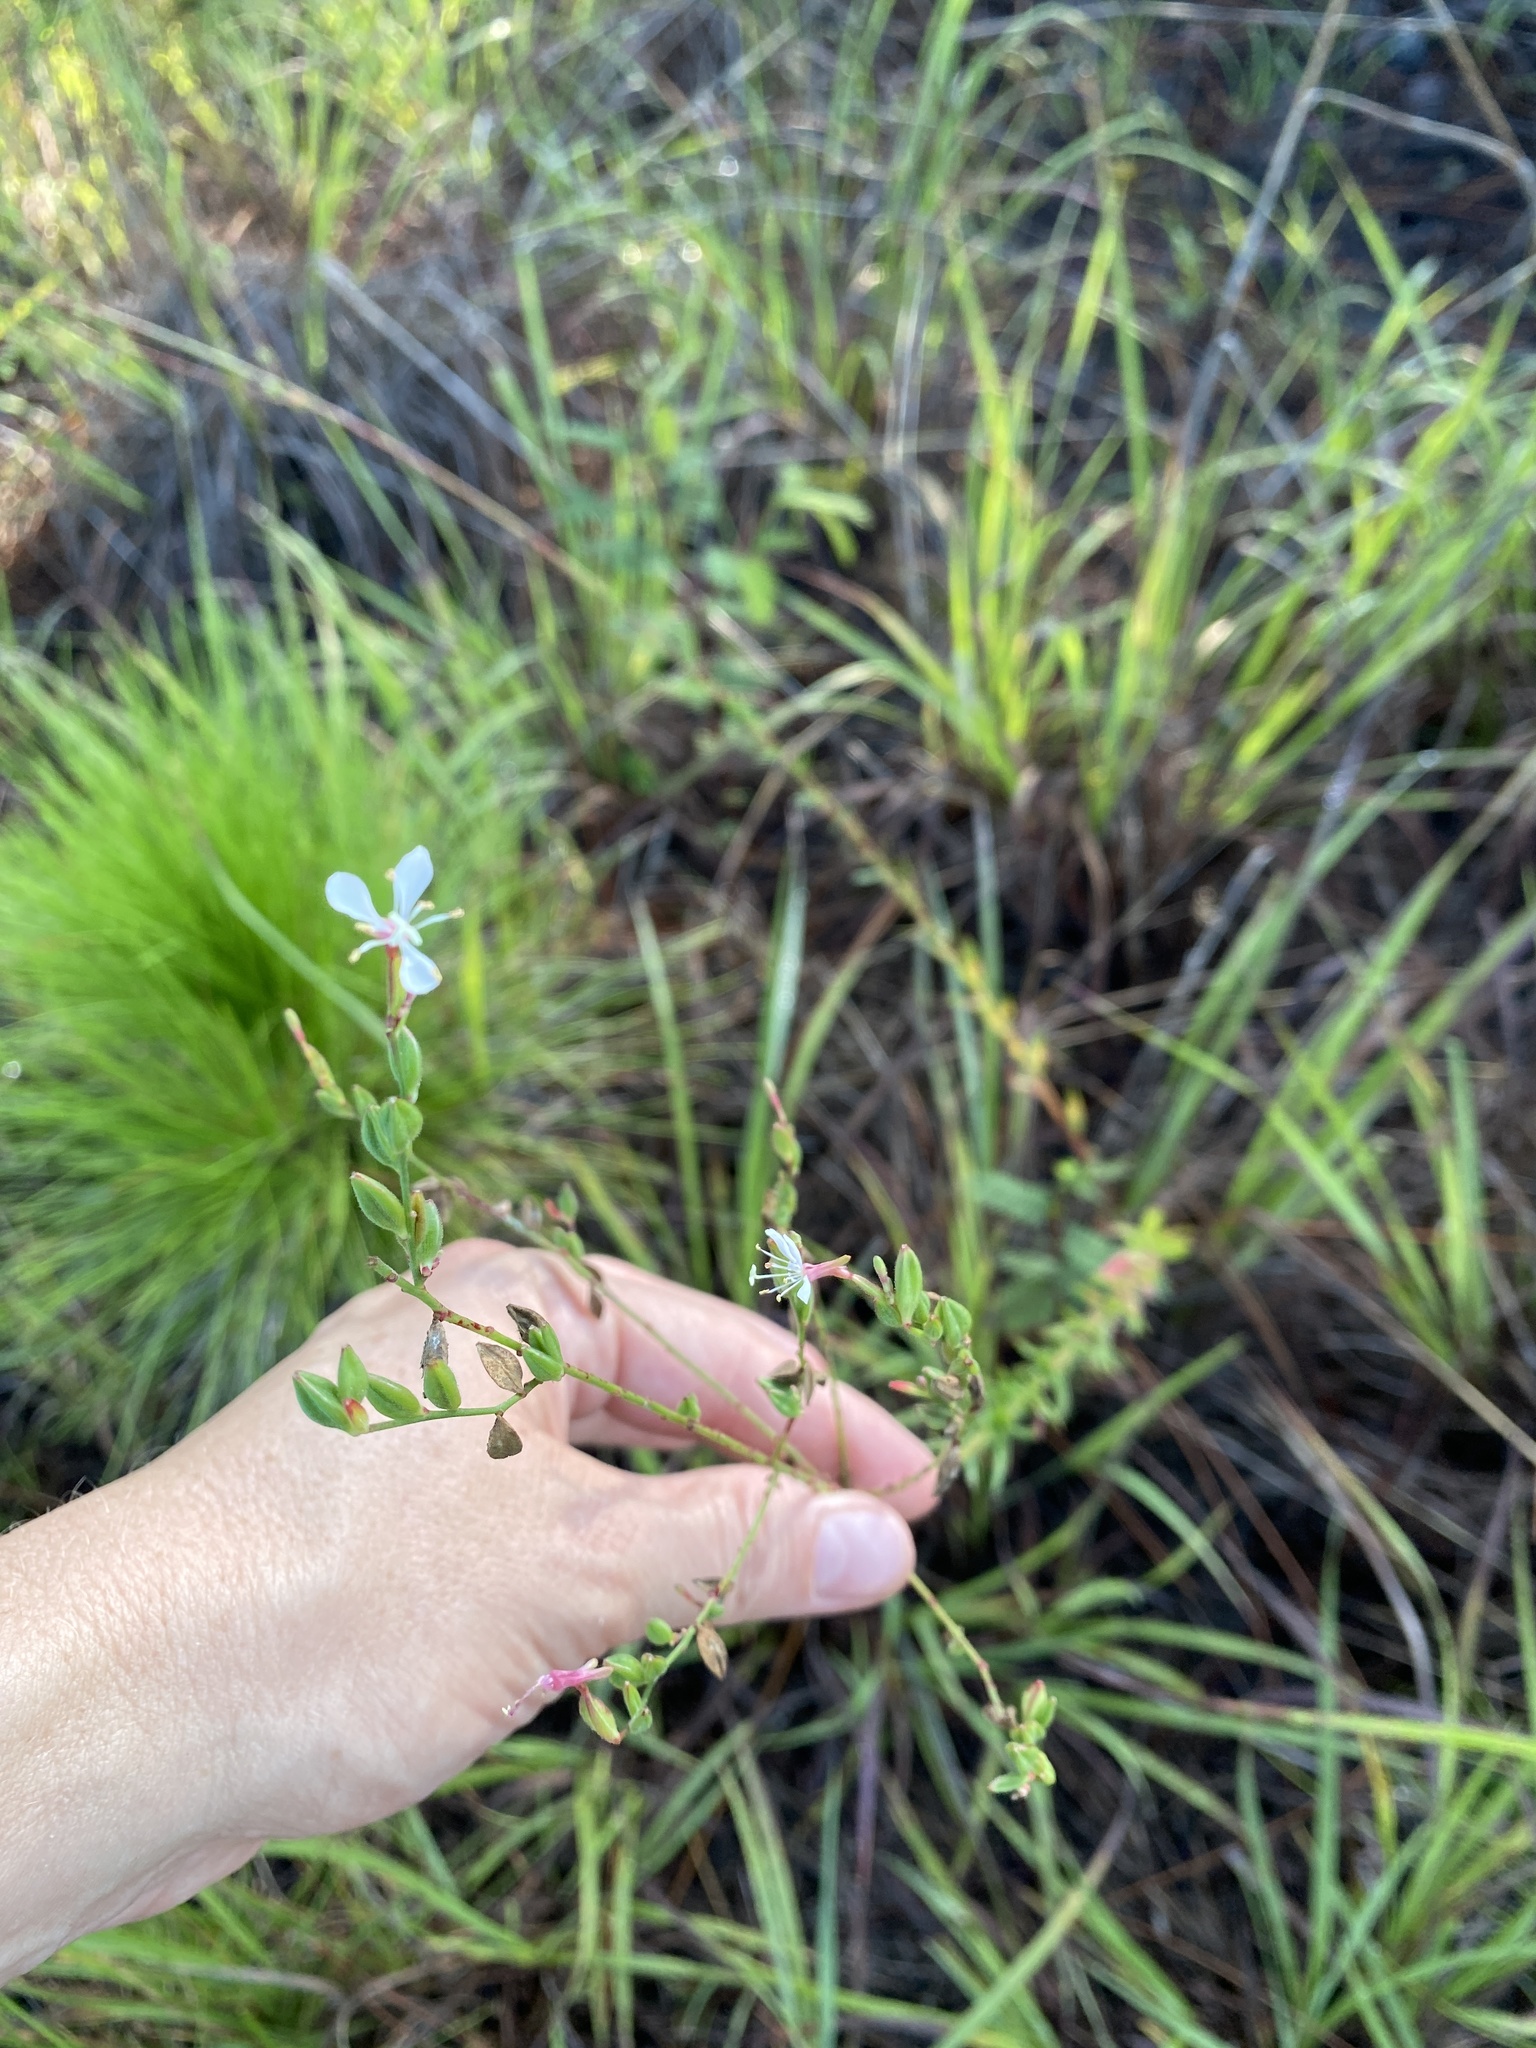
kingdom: Plantae
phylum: Tracheophyta
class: Magnoliopsida
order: Myrtales
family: Onagraceae
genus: Oenothera
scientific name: Oenothera simulans
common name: Southern beeblossom
